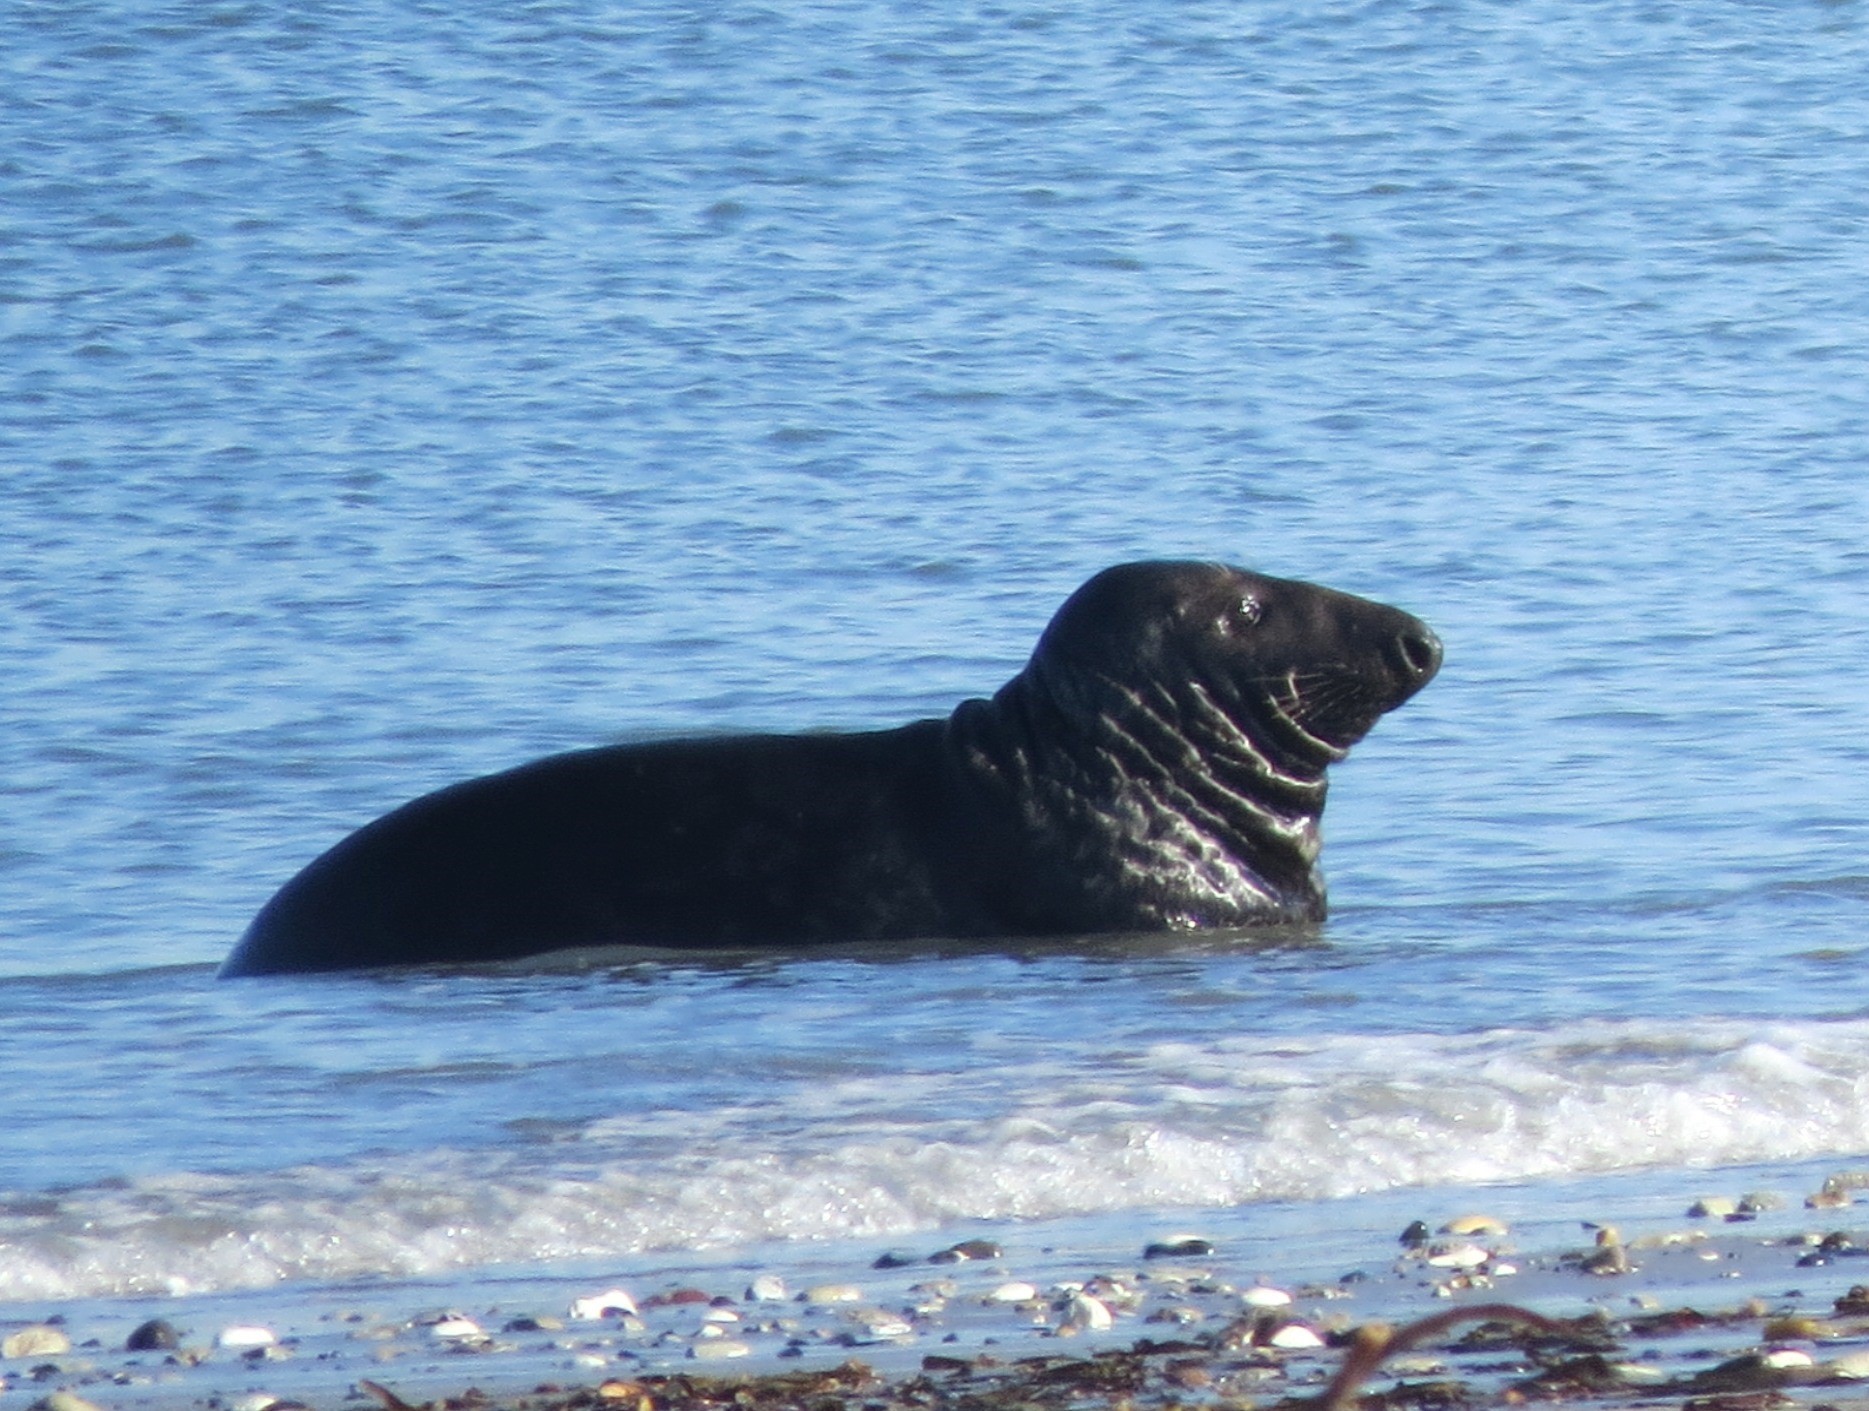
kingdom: Animalia
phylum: Chordata
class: Mammalia
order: Carnivora
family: Phocidae
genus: Halichoerus
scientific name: Halichoerus grypus
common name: Grey seal
